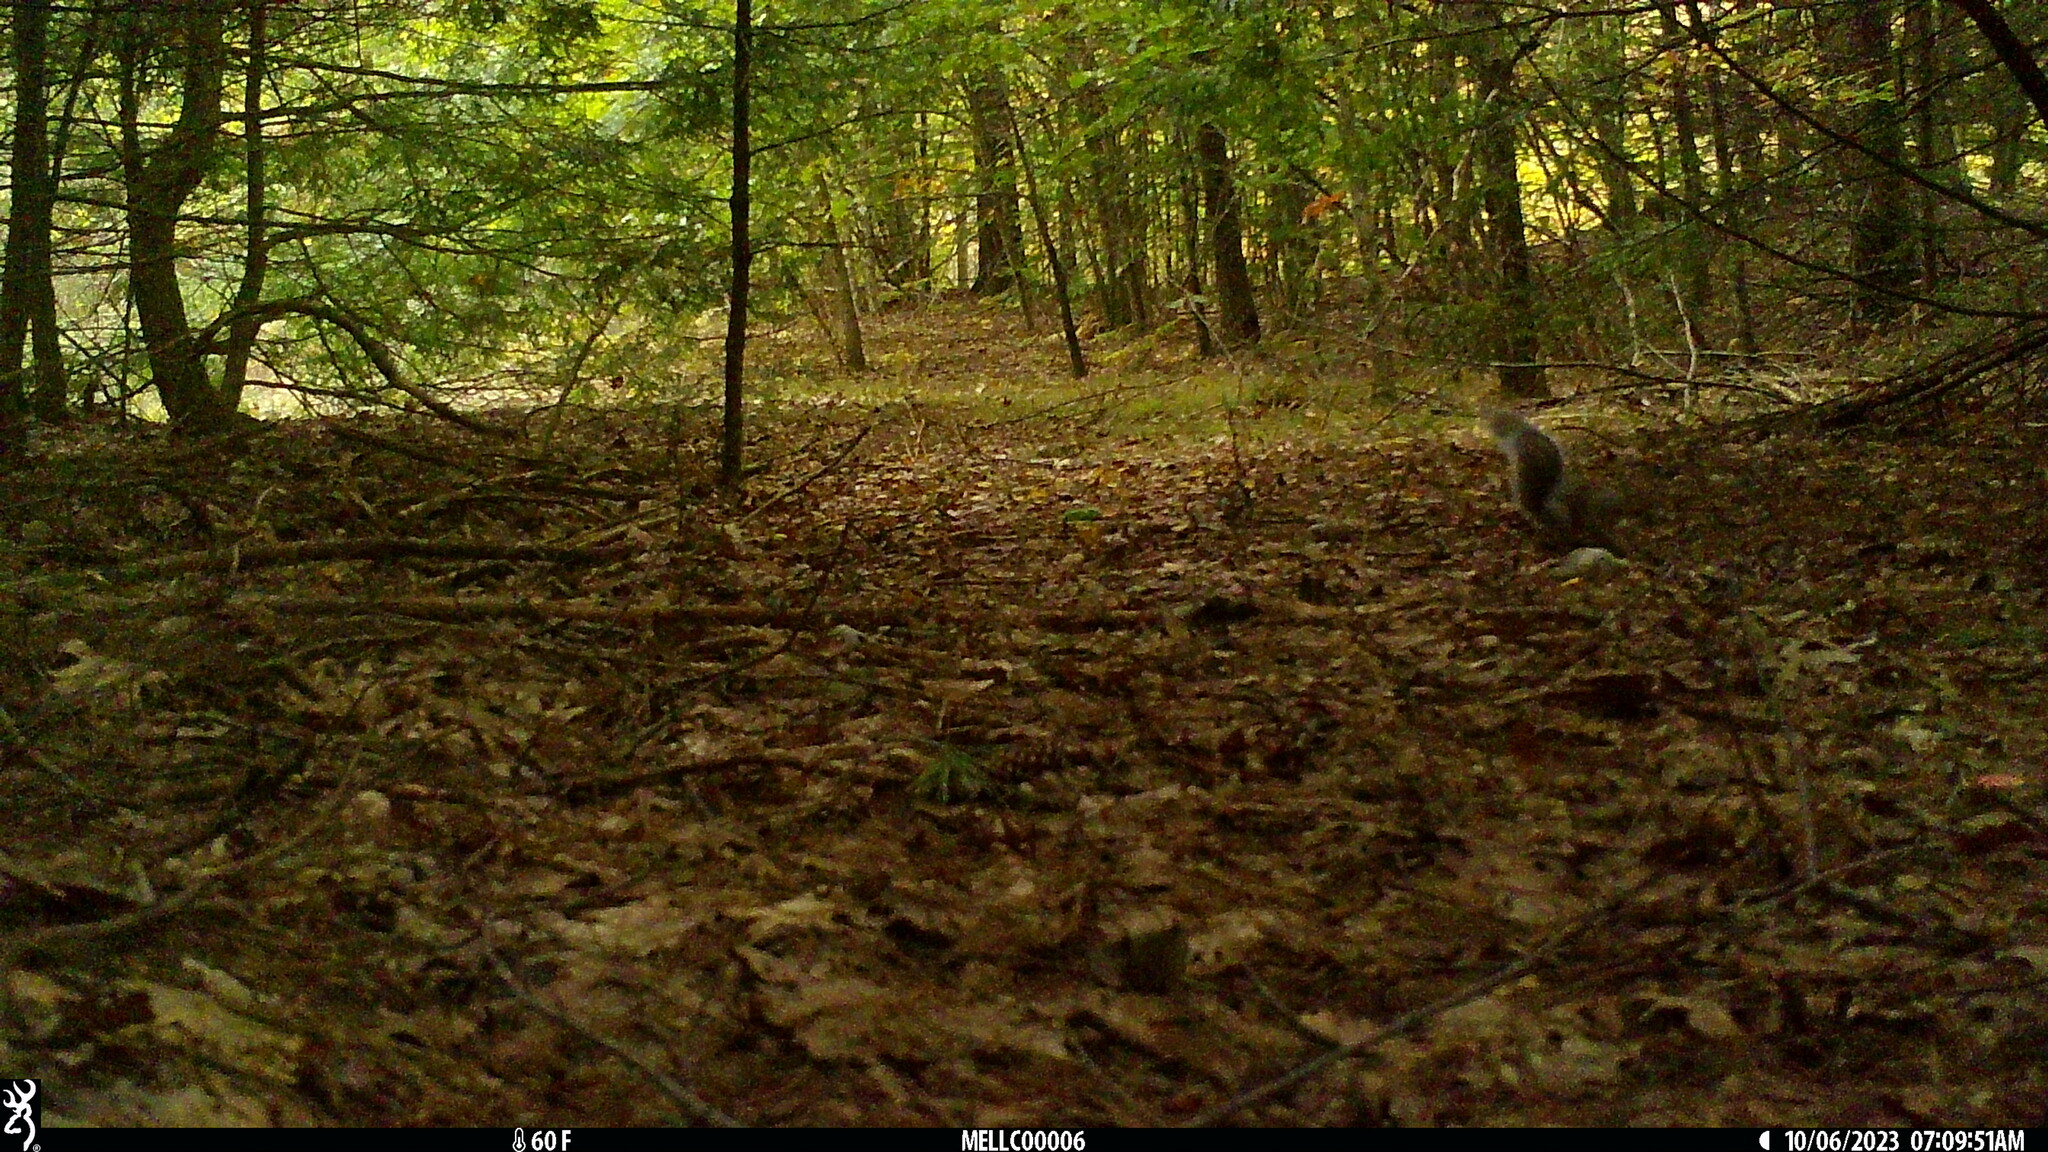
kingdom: Animalia
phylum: Chordata
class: Mammalia
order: Rodentia
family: Sciuridae
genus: Sciurus
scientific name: Sciurus carolinensis
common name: Eastern gray squirrel
